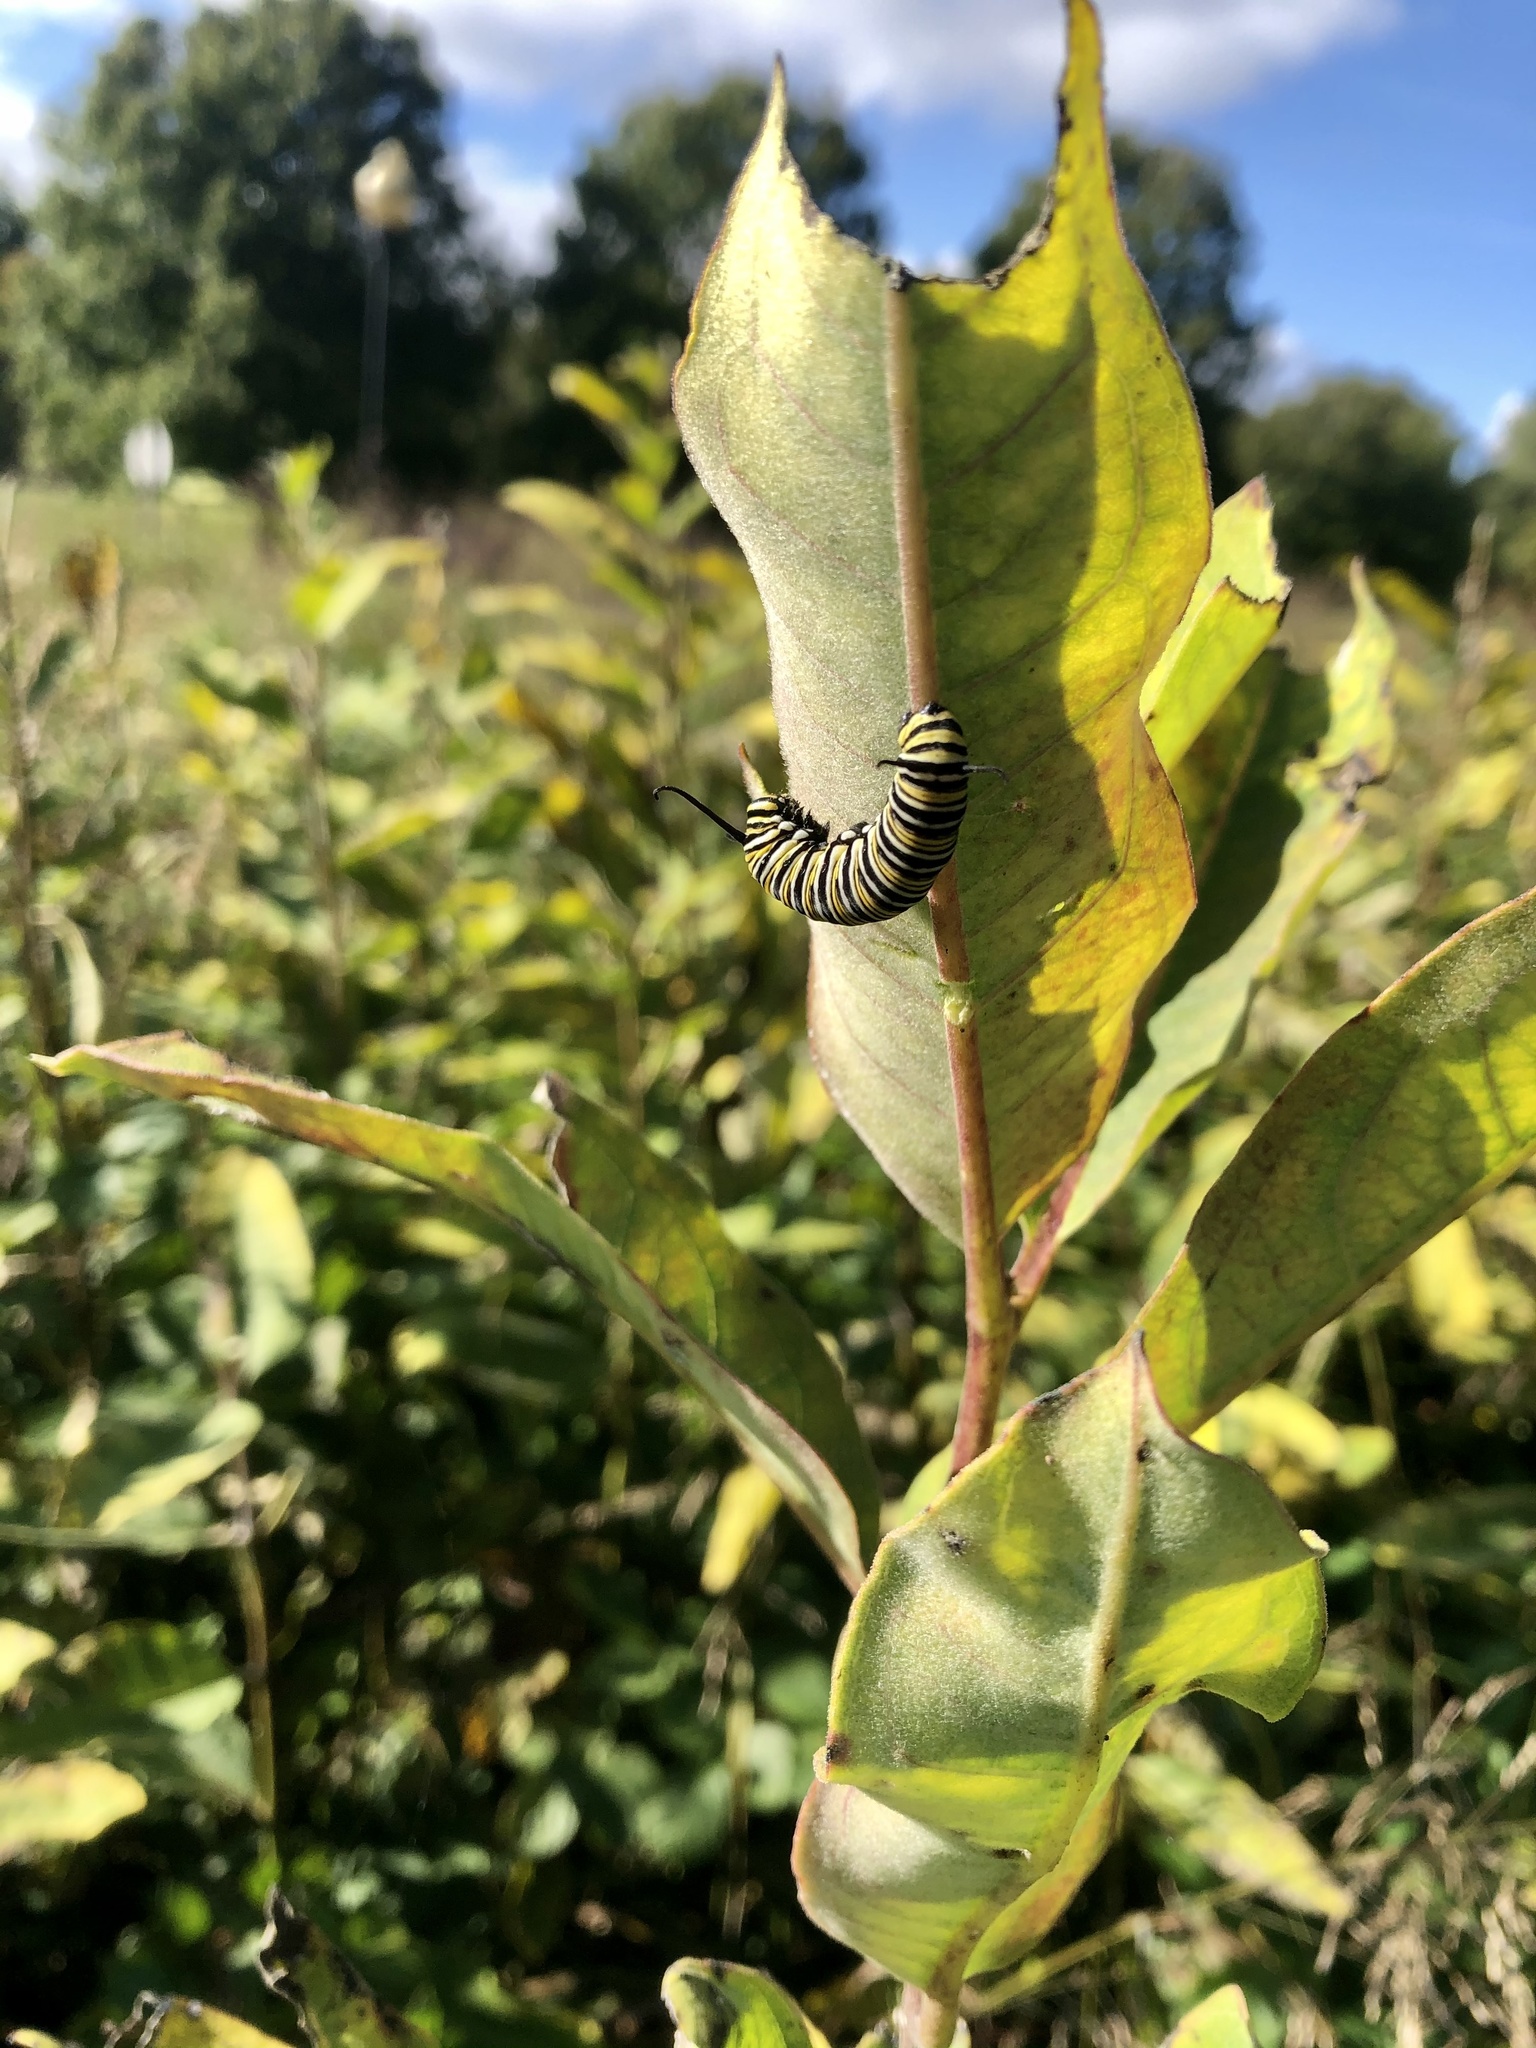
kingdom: Animalia
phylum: Arthropoda
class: Insecta
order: Lepidoptera
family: Nymphalidae
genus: Danaus
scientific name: Danaus plexippus
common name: Monarch
